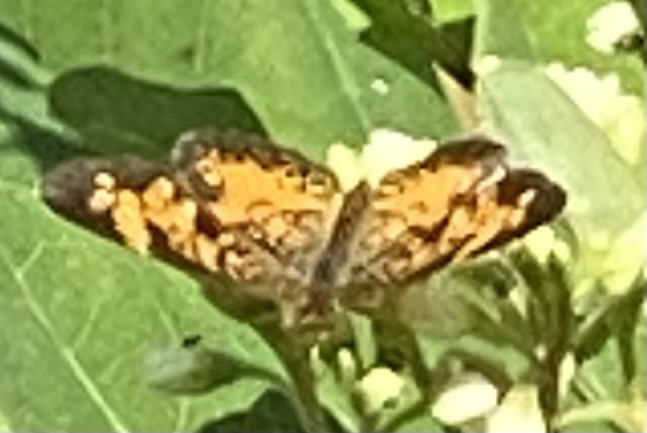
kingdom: Animalia
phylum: Arthropoda
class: Insecta
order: Lepidoptera
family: Nymphalidae
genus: Phyciodes
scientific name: Phyciodes tharos
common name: Pearl crescent
